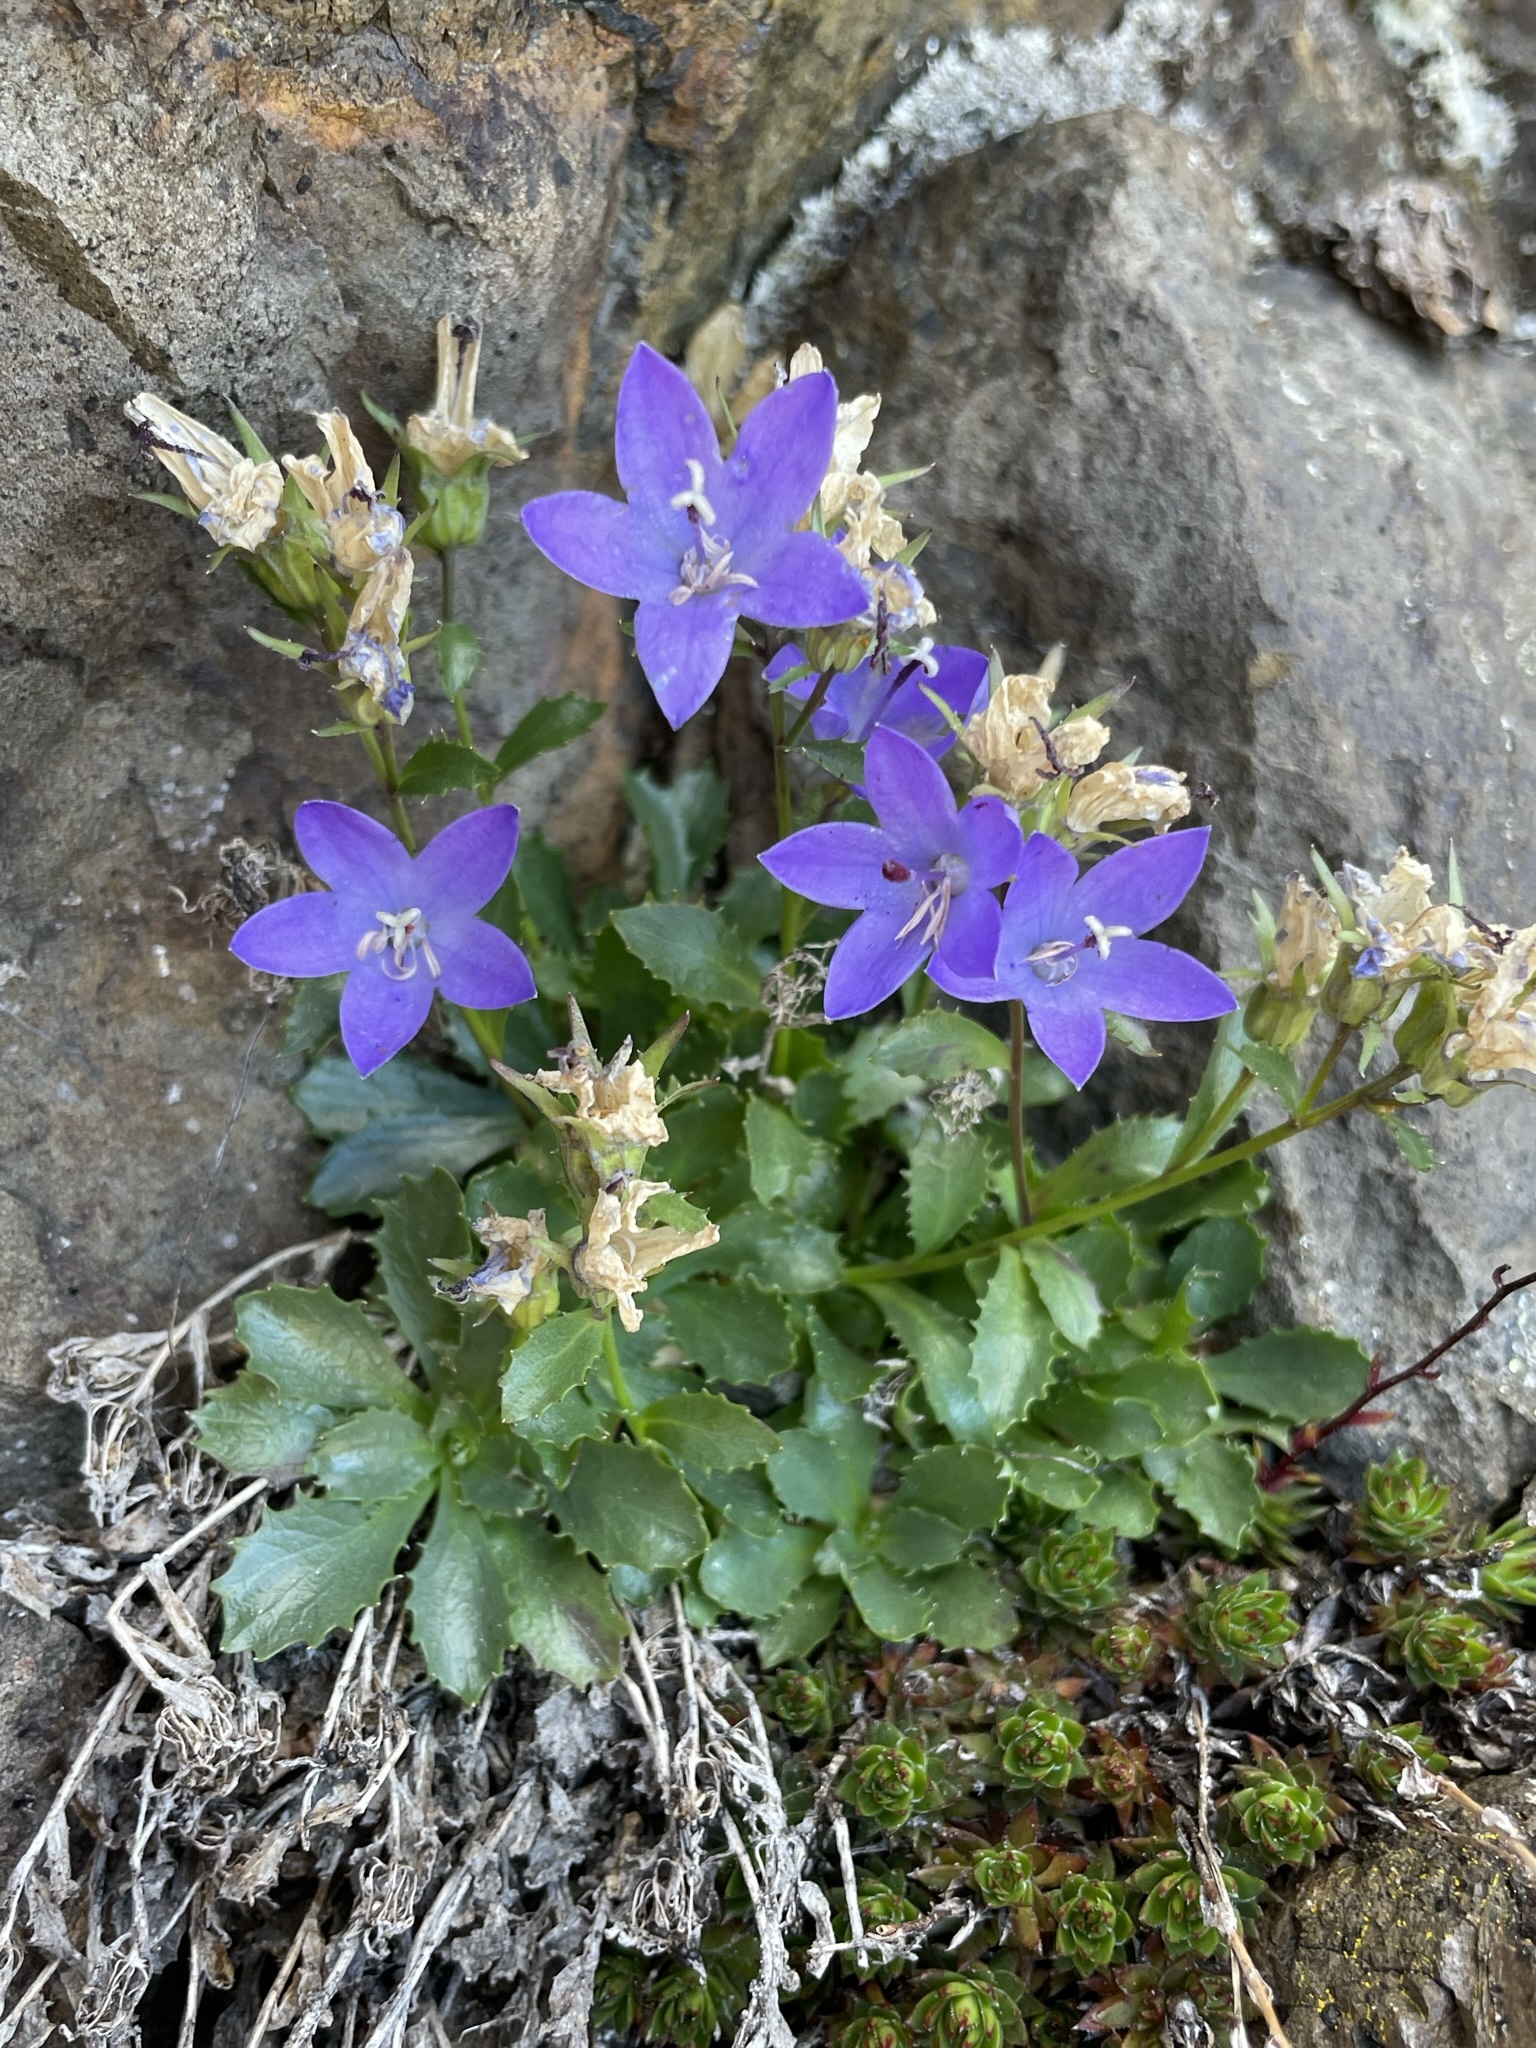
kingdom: Plantae
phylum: Tracheophyta
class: Magnoliopsida
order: Asterales
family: Campanulaceae
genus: Campanula
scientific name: Campanula piperi
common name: Olympic bellflower
